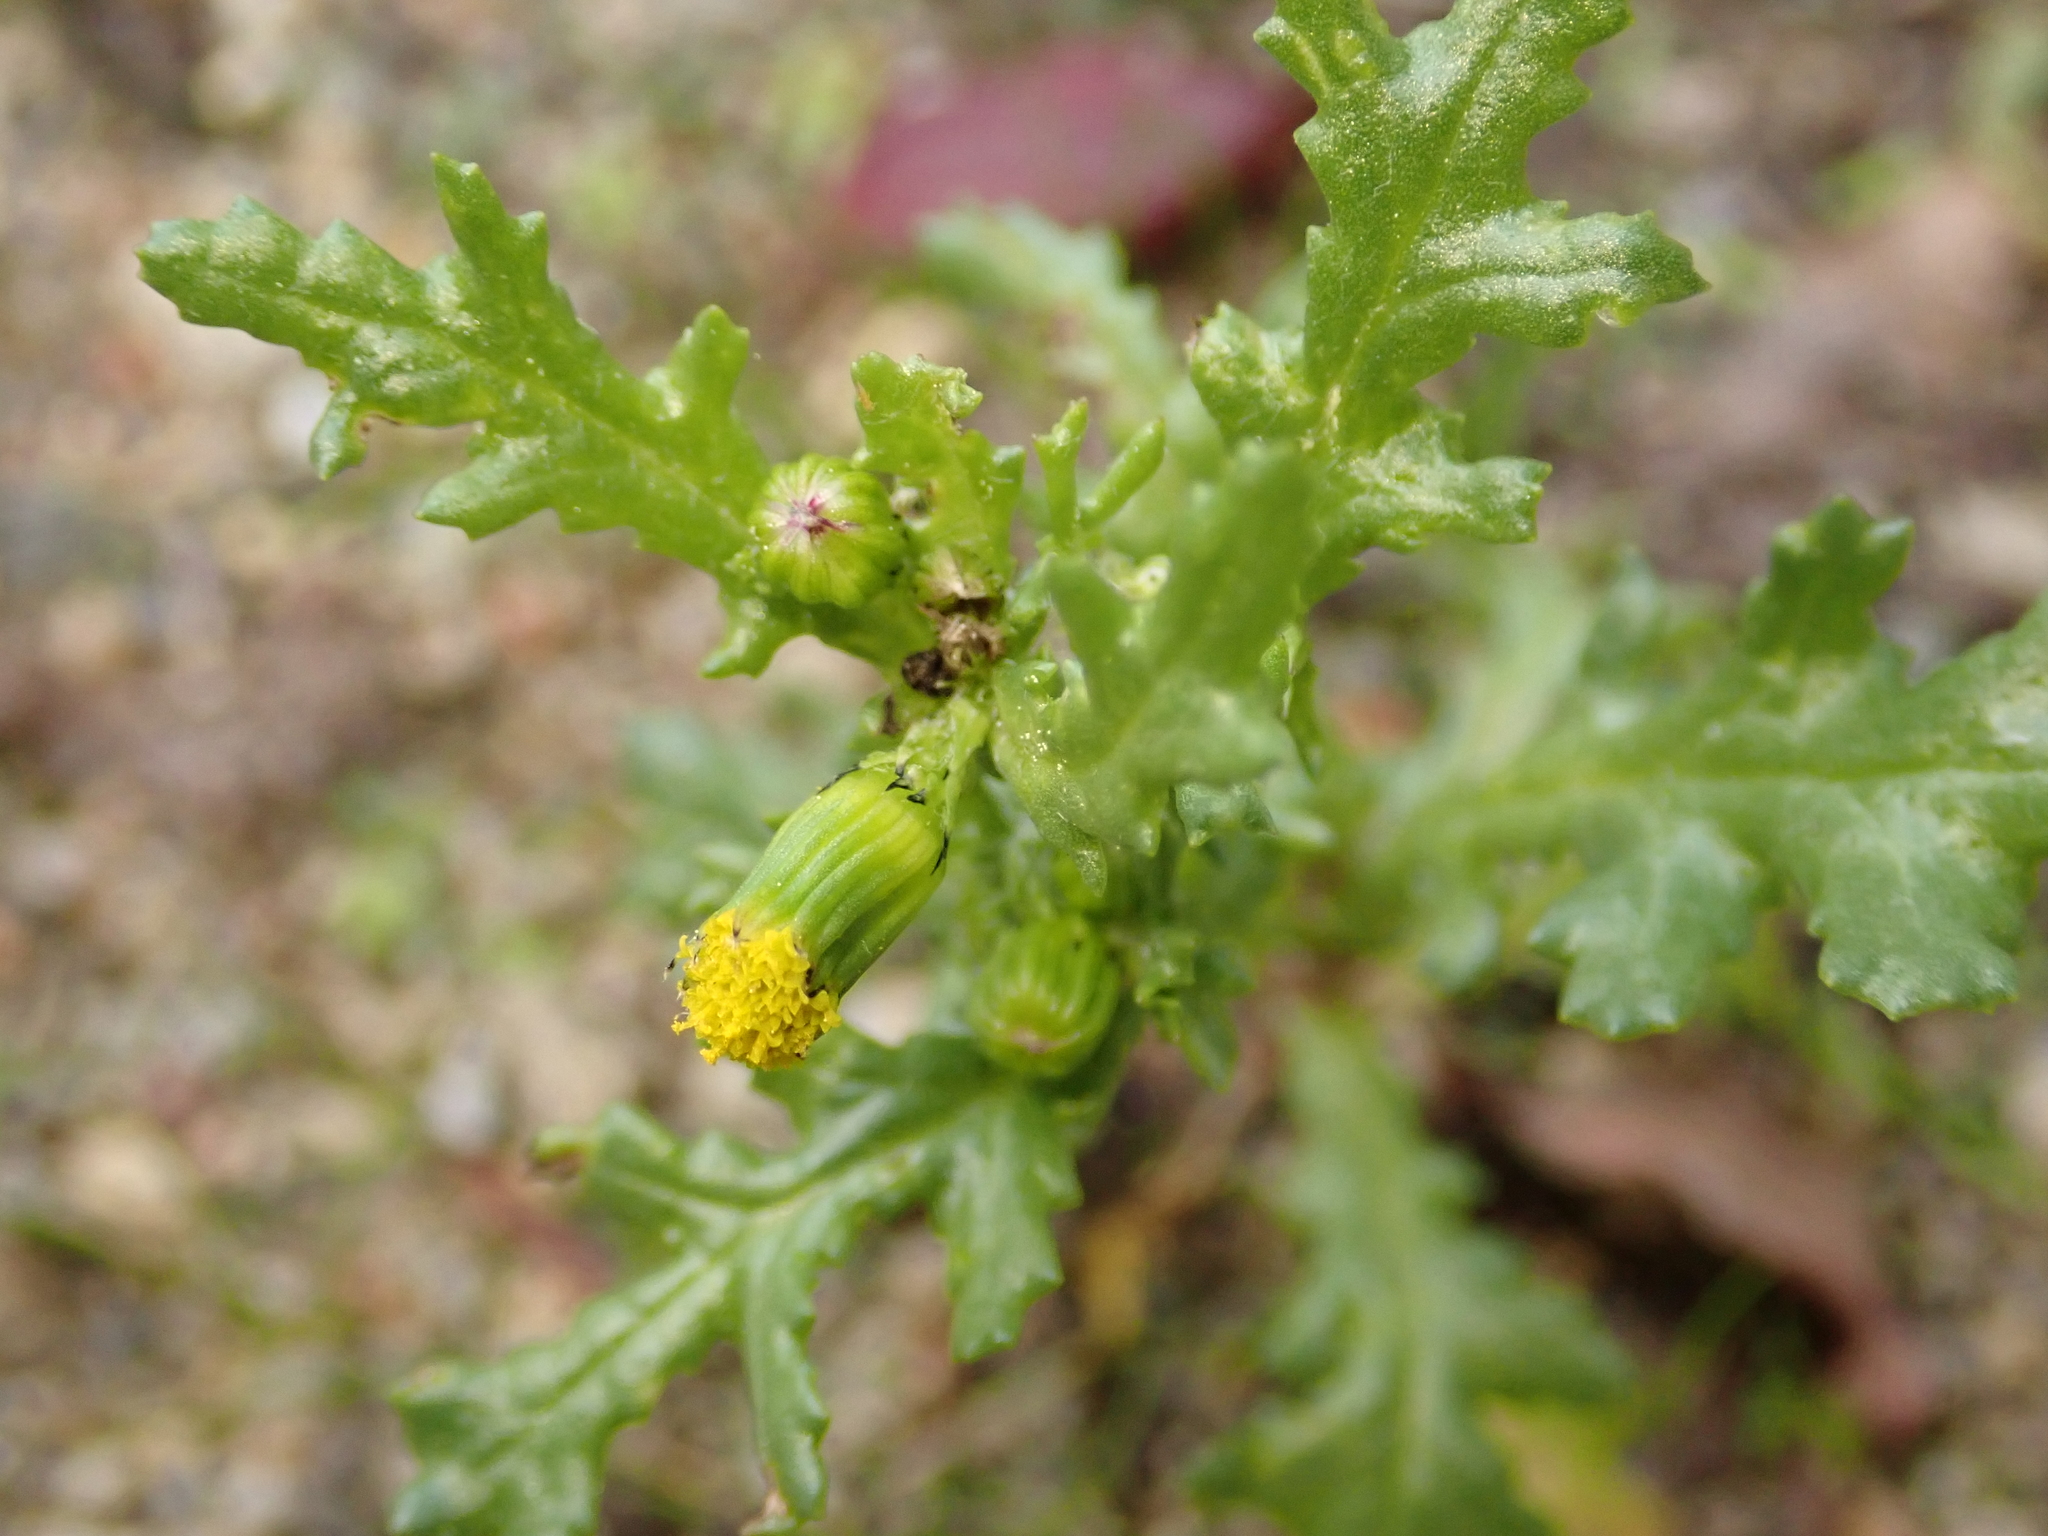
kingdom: Plantae
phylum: Tracheophyta
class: Magnoliopsida
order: Asterales
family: Asteraceae
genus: Senecio
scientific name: Senecio vulgaris
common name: Old-man-in-the-spring
